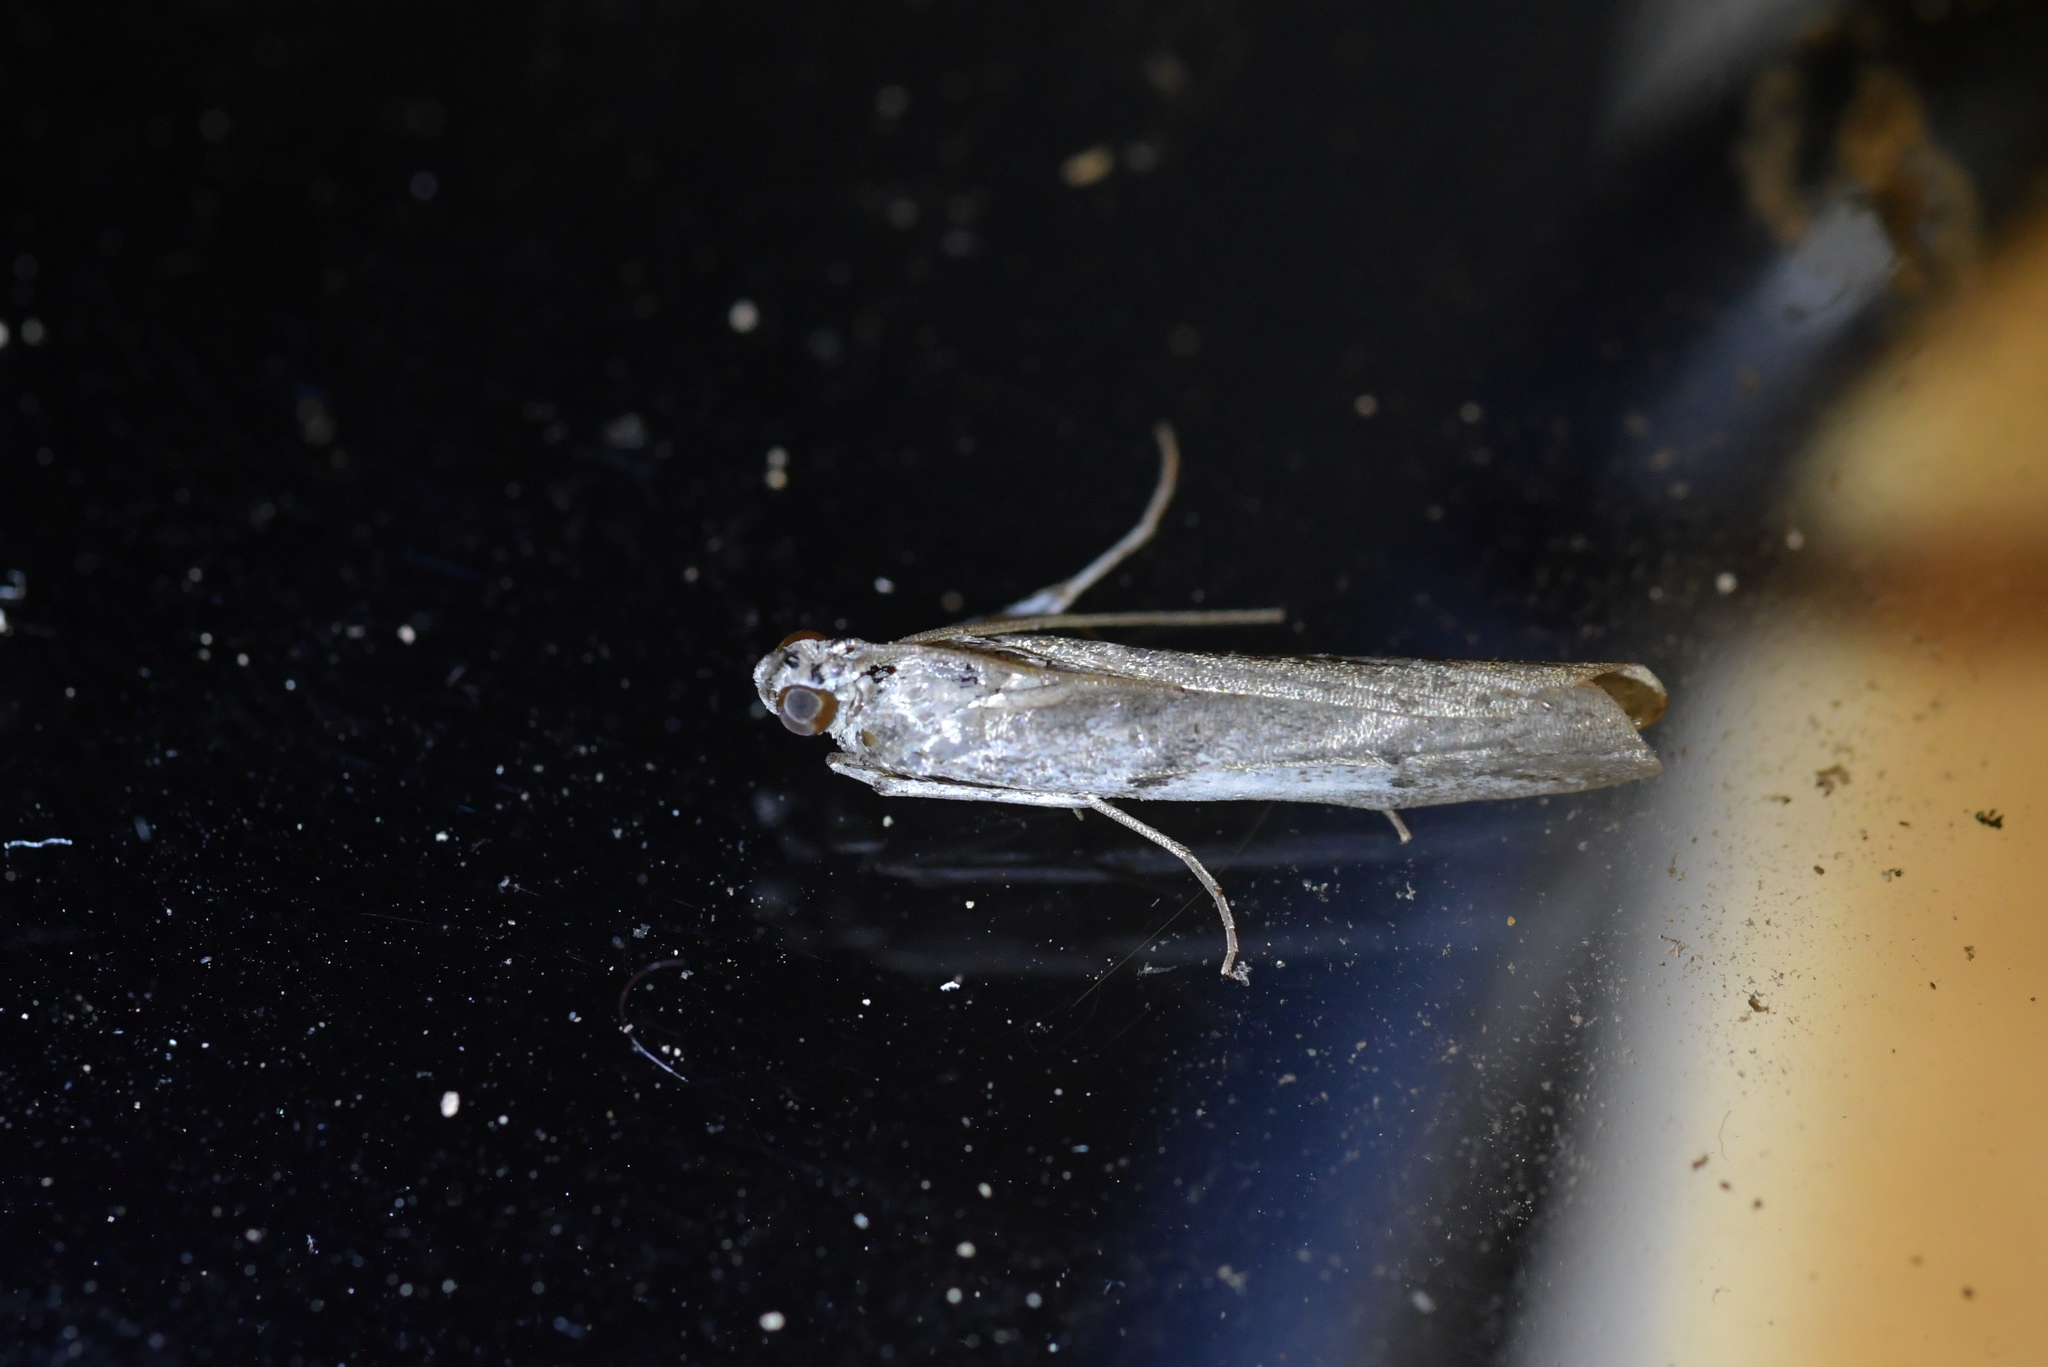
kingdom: Animalia
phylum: Arthropoda
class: Insecta
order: Lepidoptera
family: Pyralidae
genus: Patagoniodes
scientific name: Patagoniodes farinaria
